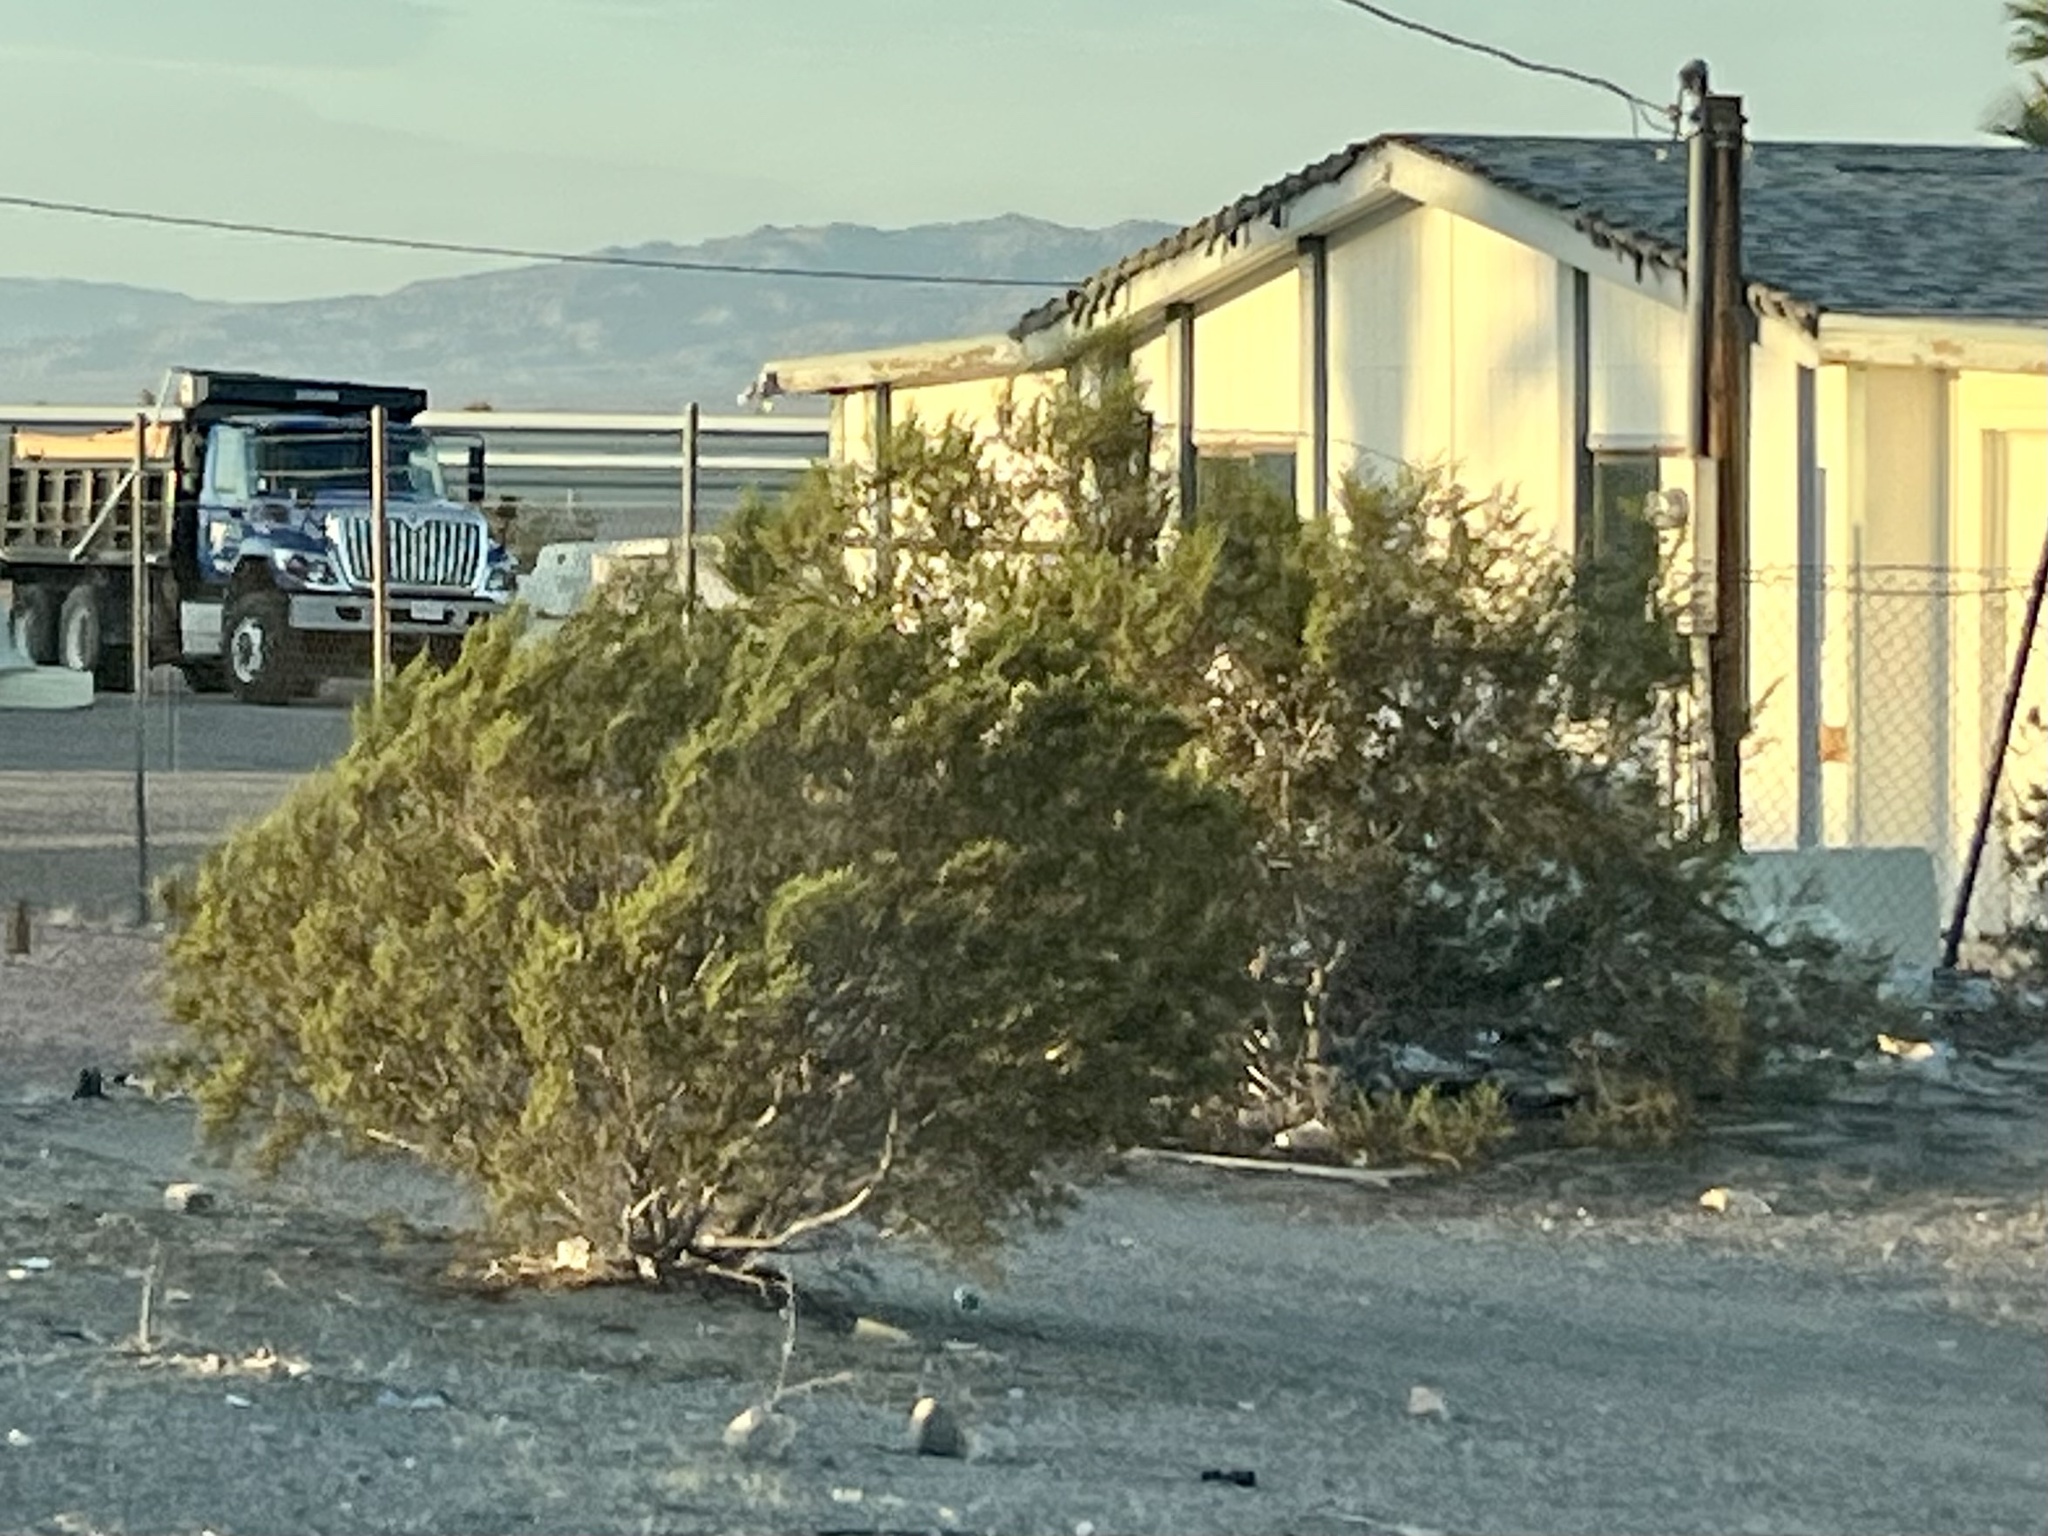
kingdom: Plantae
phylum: Tracheophyta
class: Magnoliopsida
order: Zygophyllales
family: Zygophyllaceae
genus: Larrea
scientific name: Larrea tridentata
